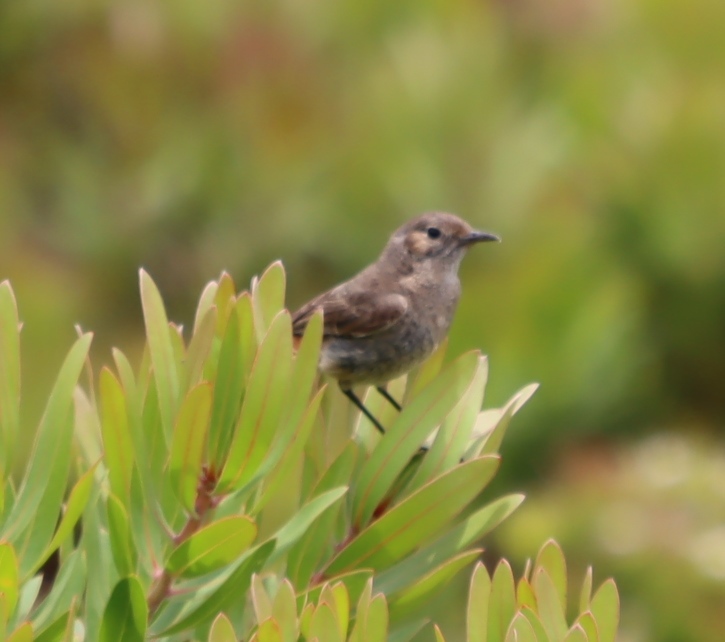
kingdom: Animalia
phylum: Chordata
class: Aves
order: Passeriformes
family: Muscicapidae
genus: Oenanthe
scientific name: Oenanthe familiaris
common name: Familiar chat
